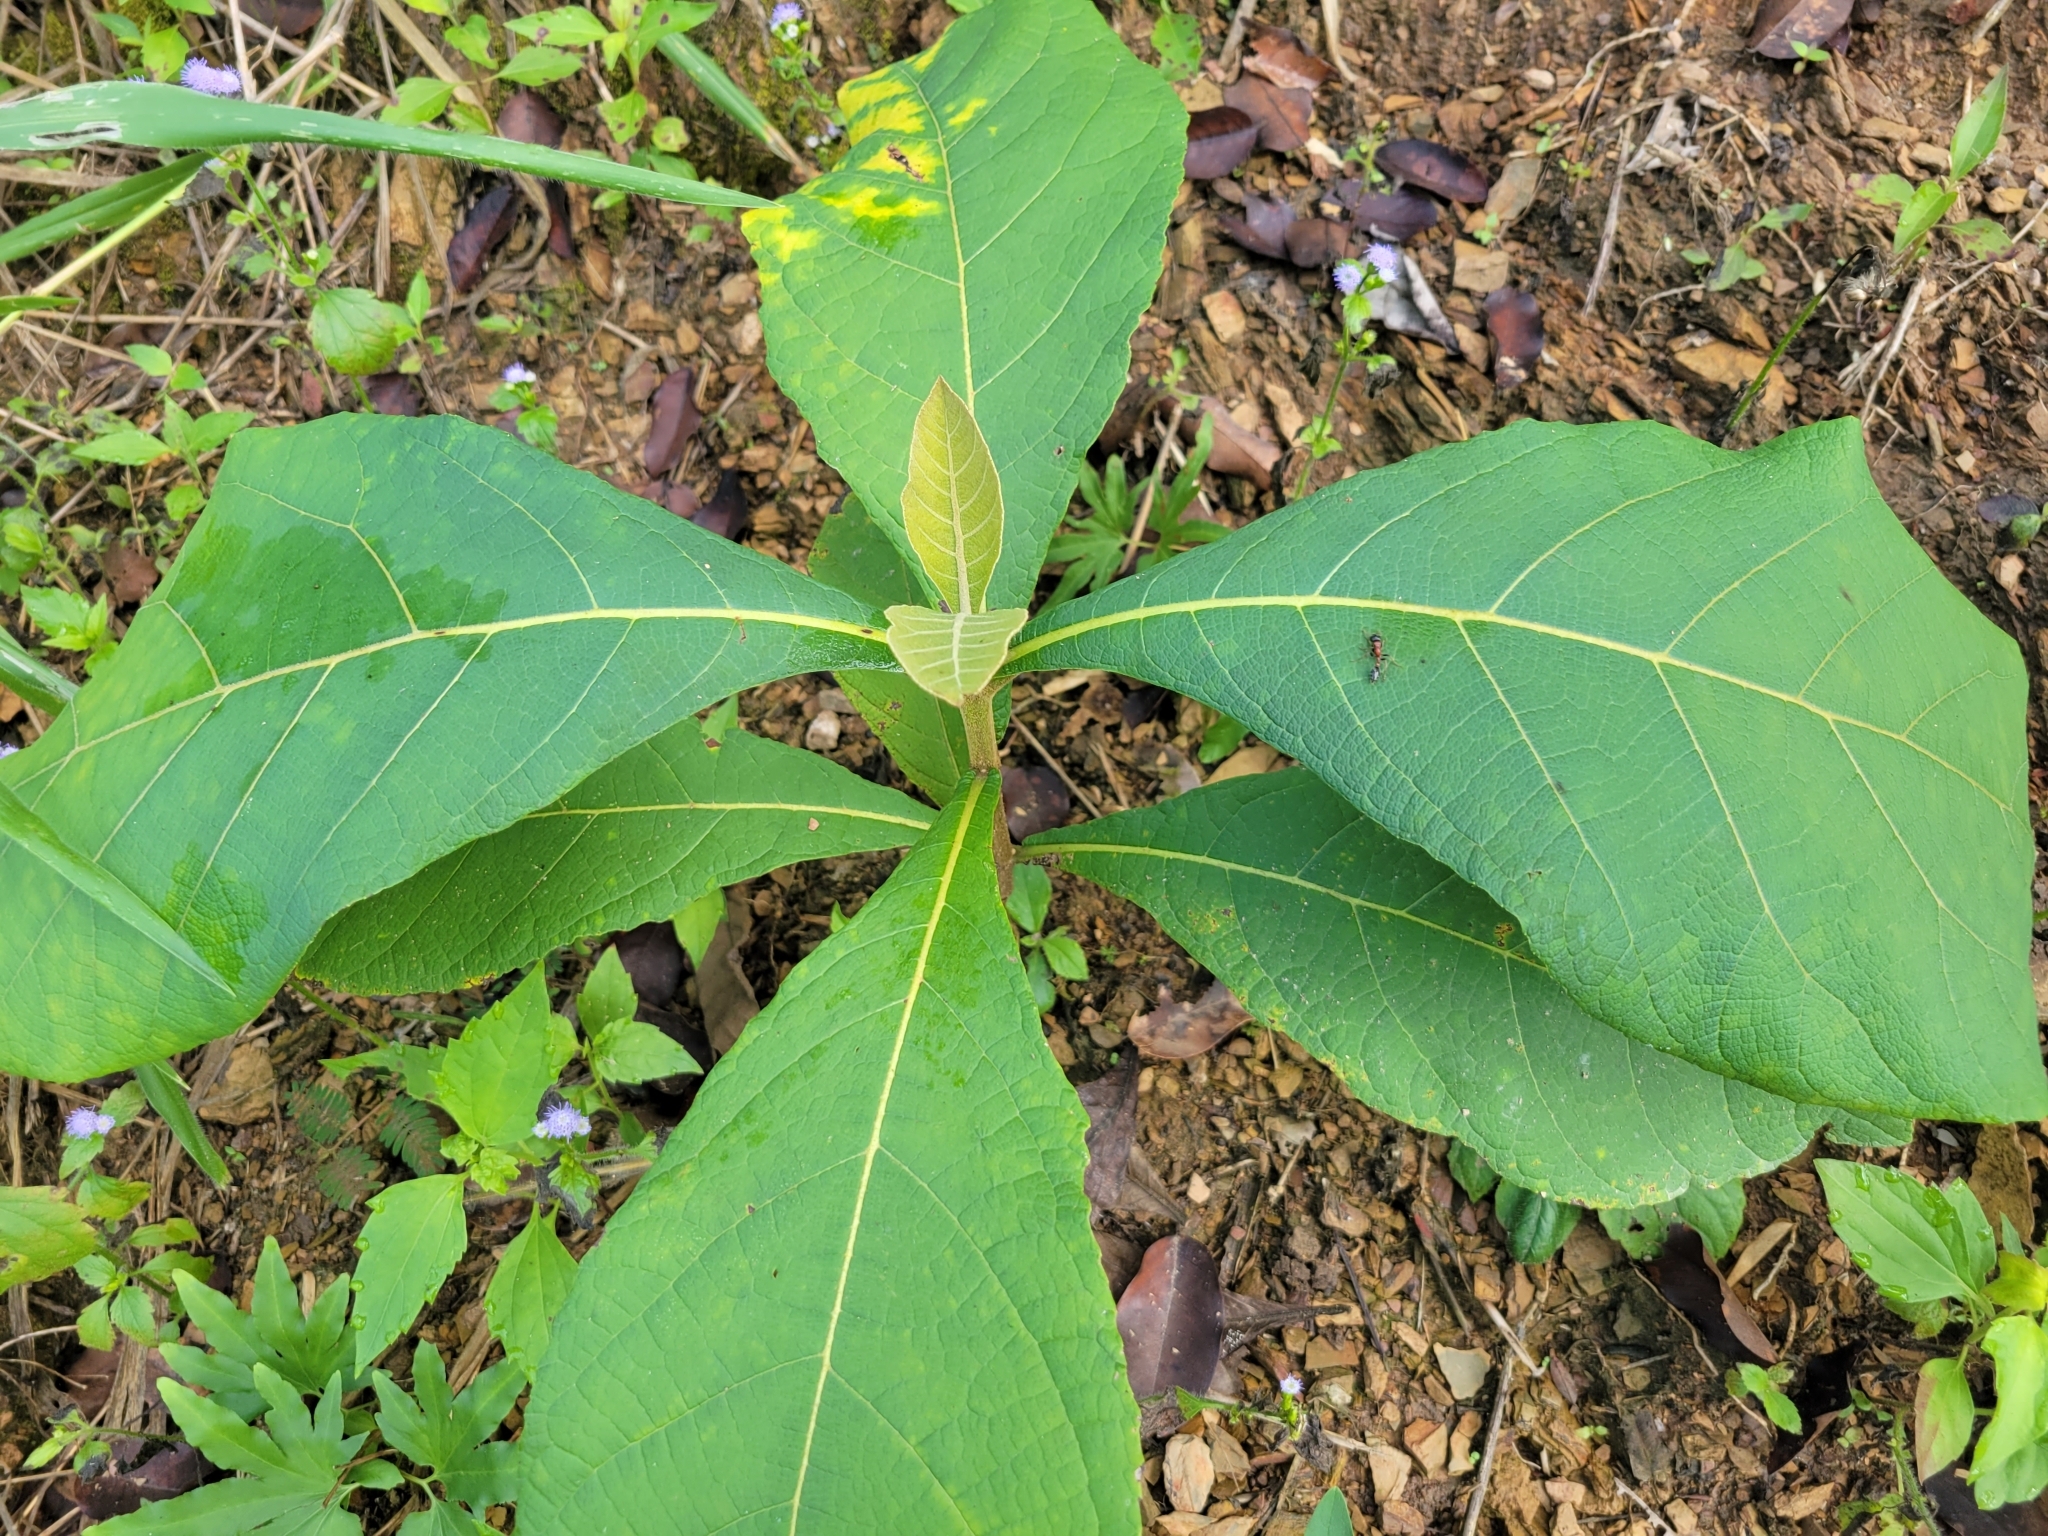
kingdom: Plantae
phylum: Tracheophyta
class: Magnoliopsida
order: Lamiales
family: Lamiaceae
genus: Tectona
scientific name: Tectona grandis
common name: Teak
